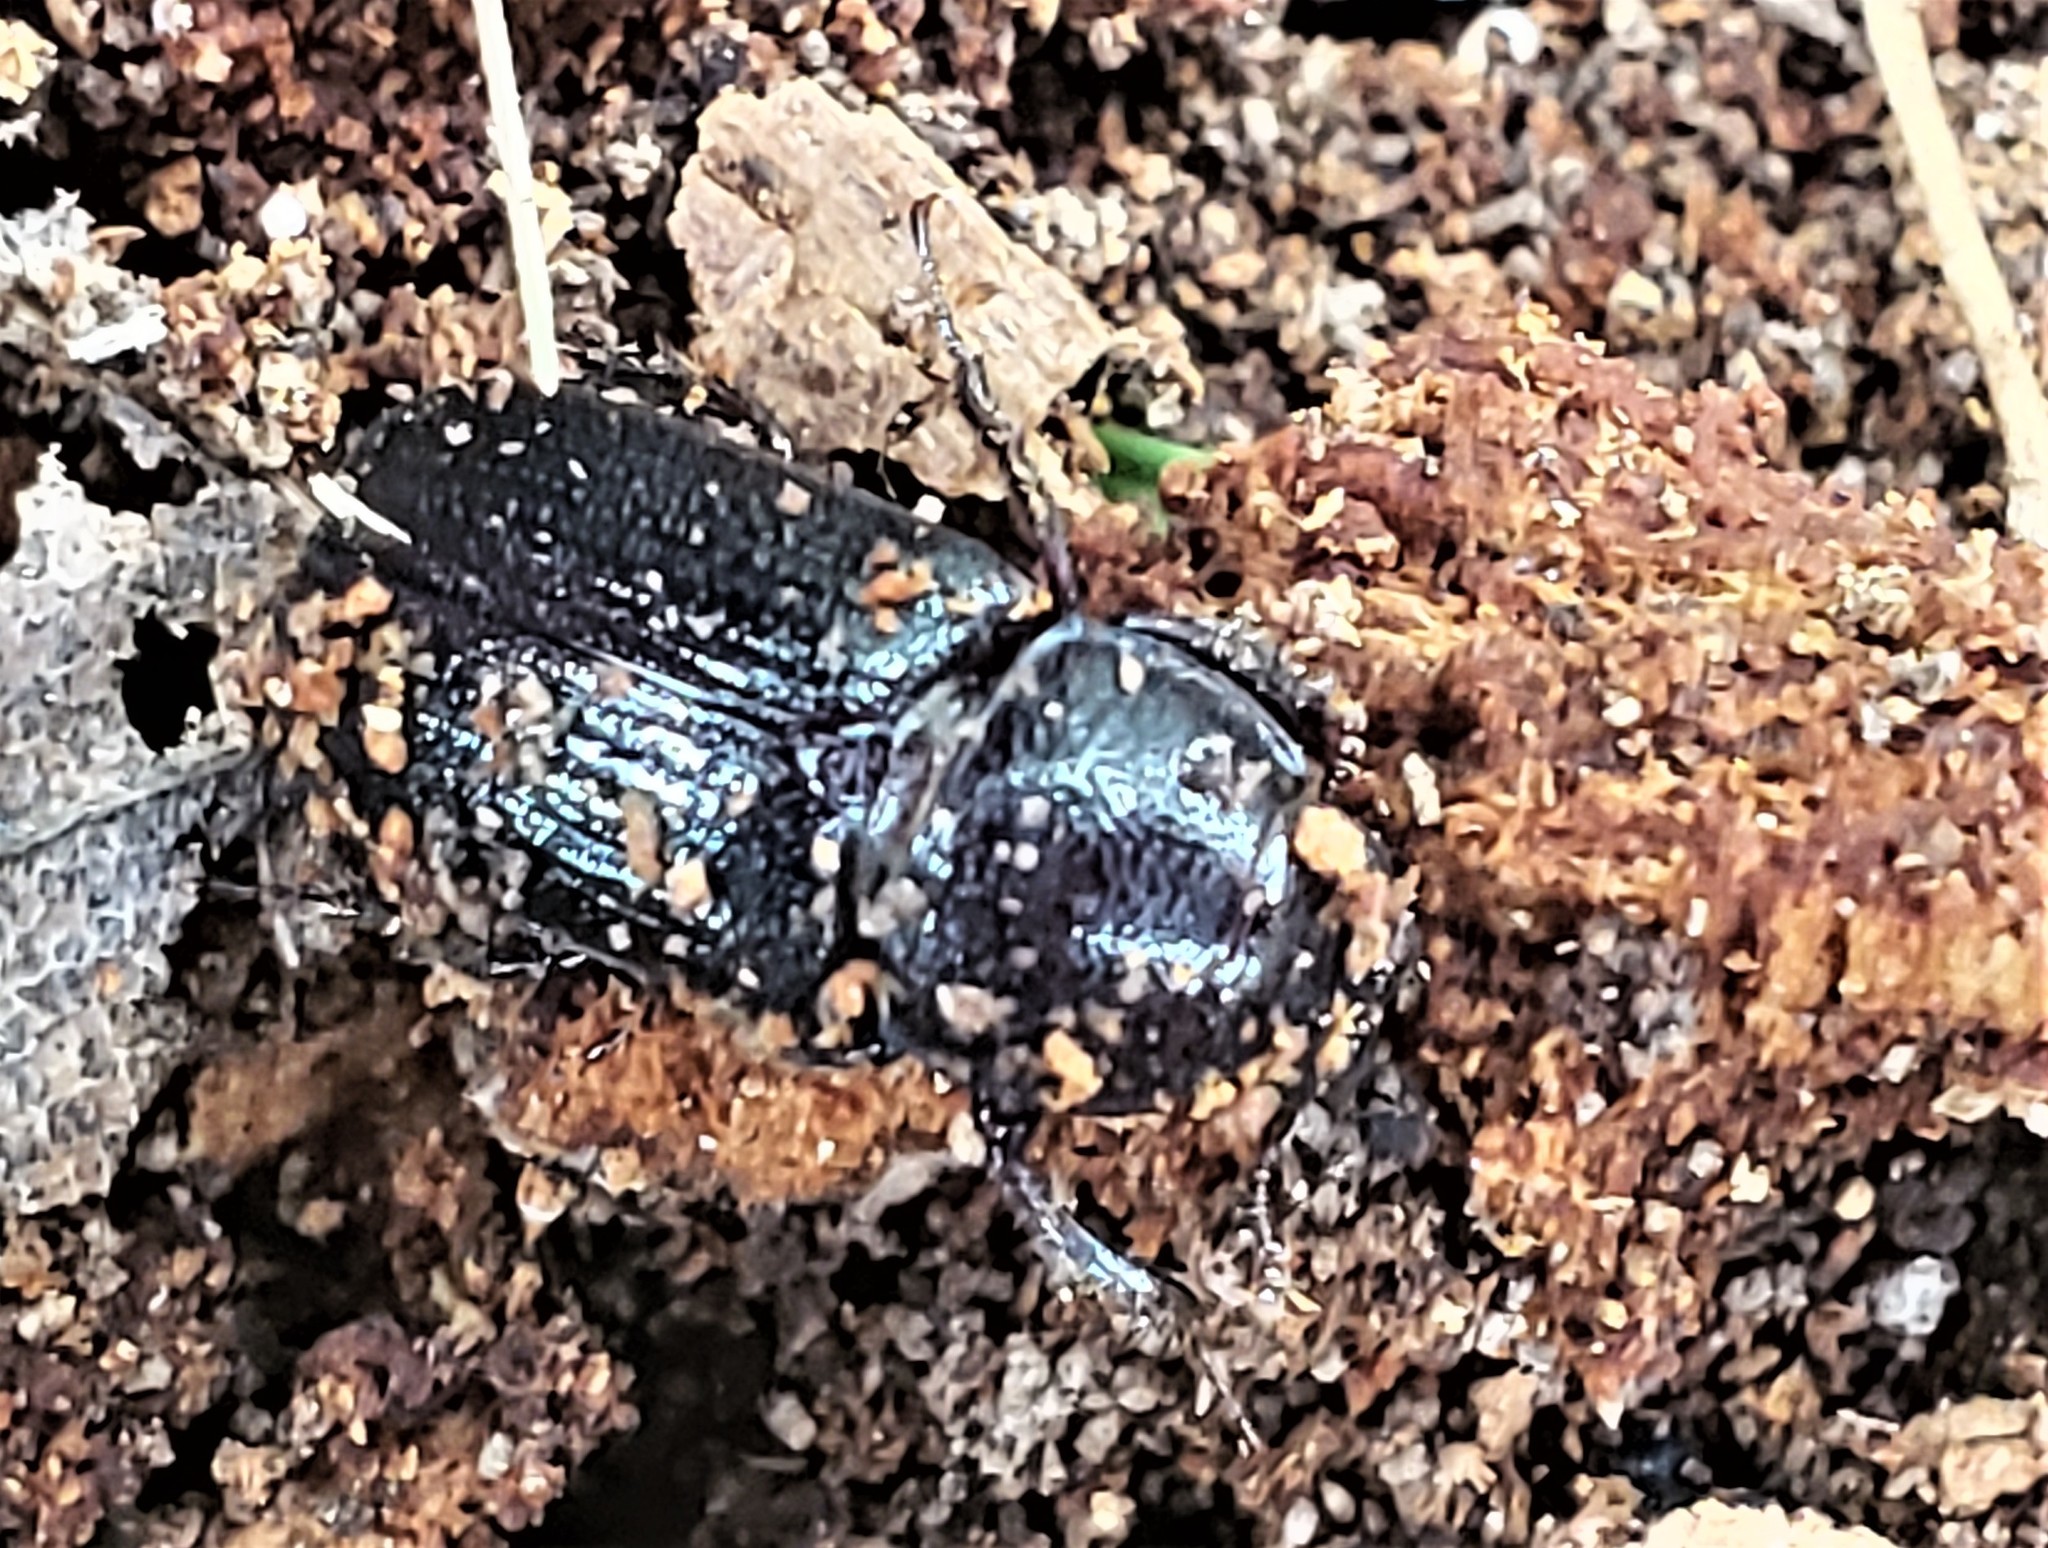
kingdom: Animalia
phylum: Arthropoda
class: Insecta
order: Coleoptera
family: Lucanidae
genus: Ceruchus
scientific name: Ceruchus piceus
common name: Red-rot decay stag beetle
